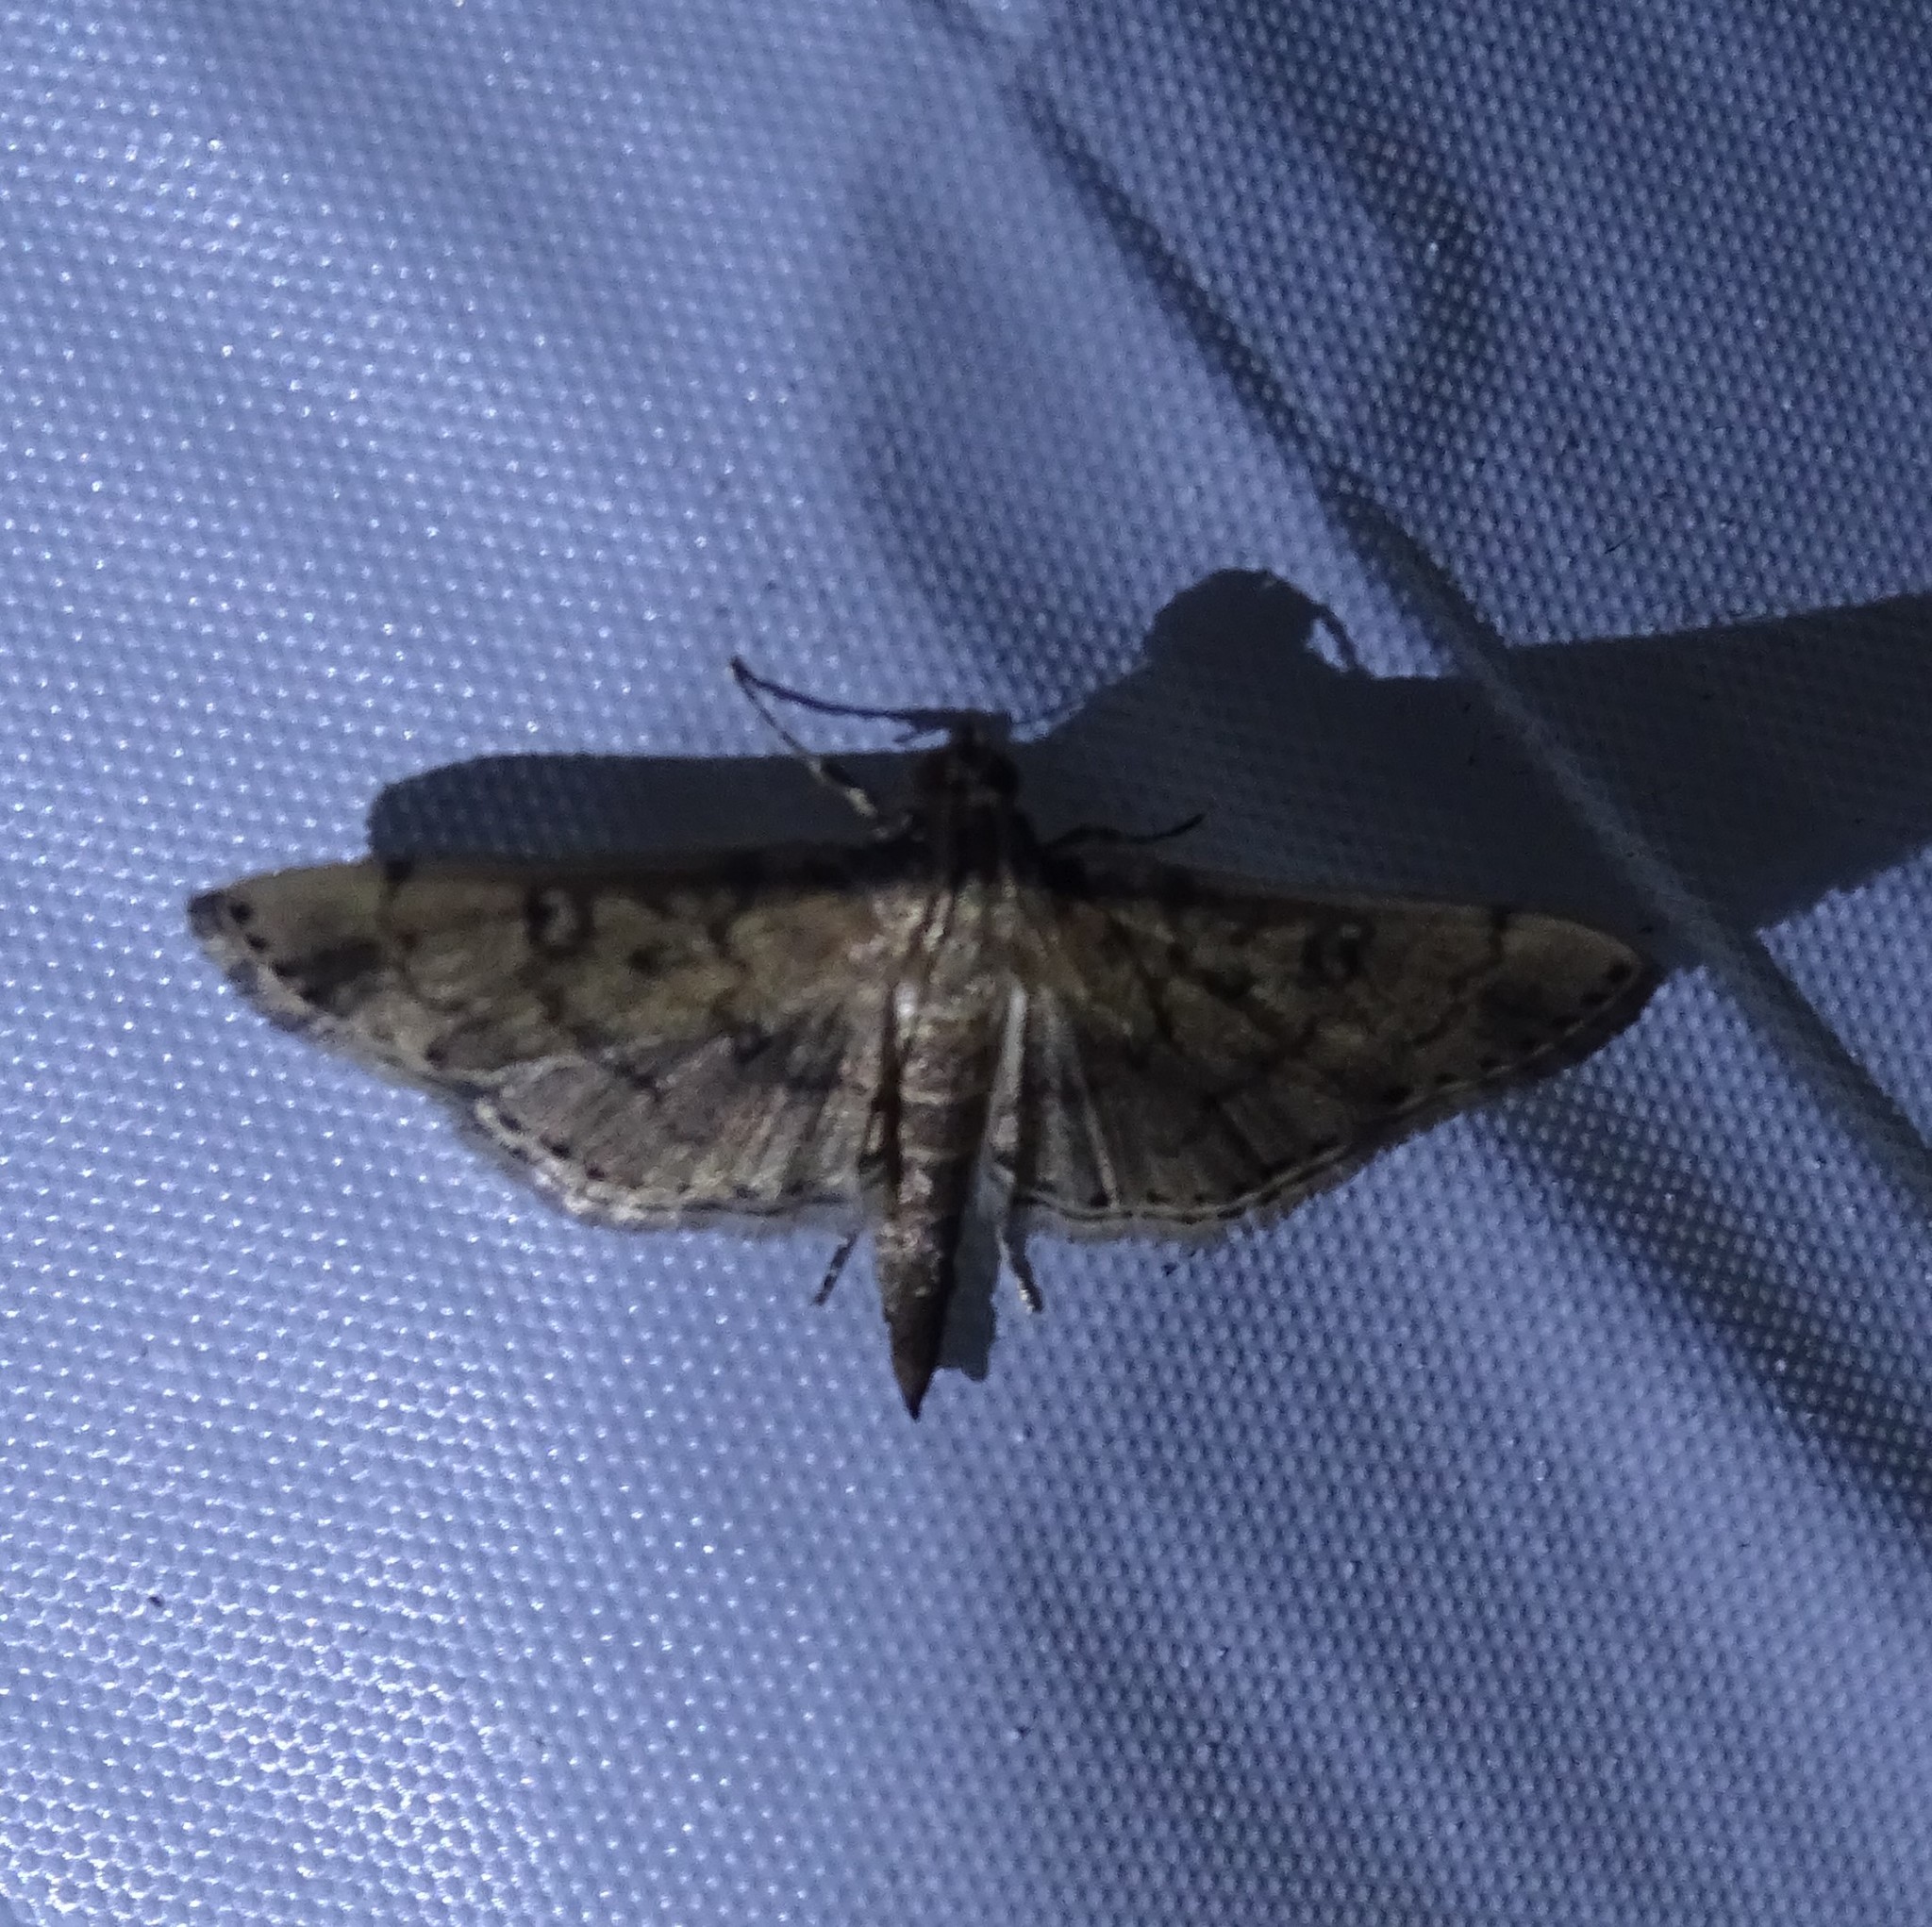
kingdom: Animalia
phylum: Arthropoda
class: Insecta
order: Lepidoptera
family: Crambidae
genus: Lamprosema
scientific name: Lamprosema Blepharomastix ranalis
